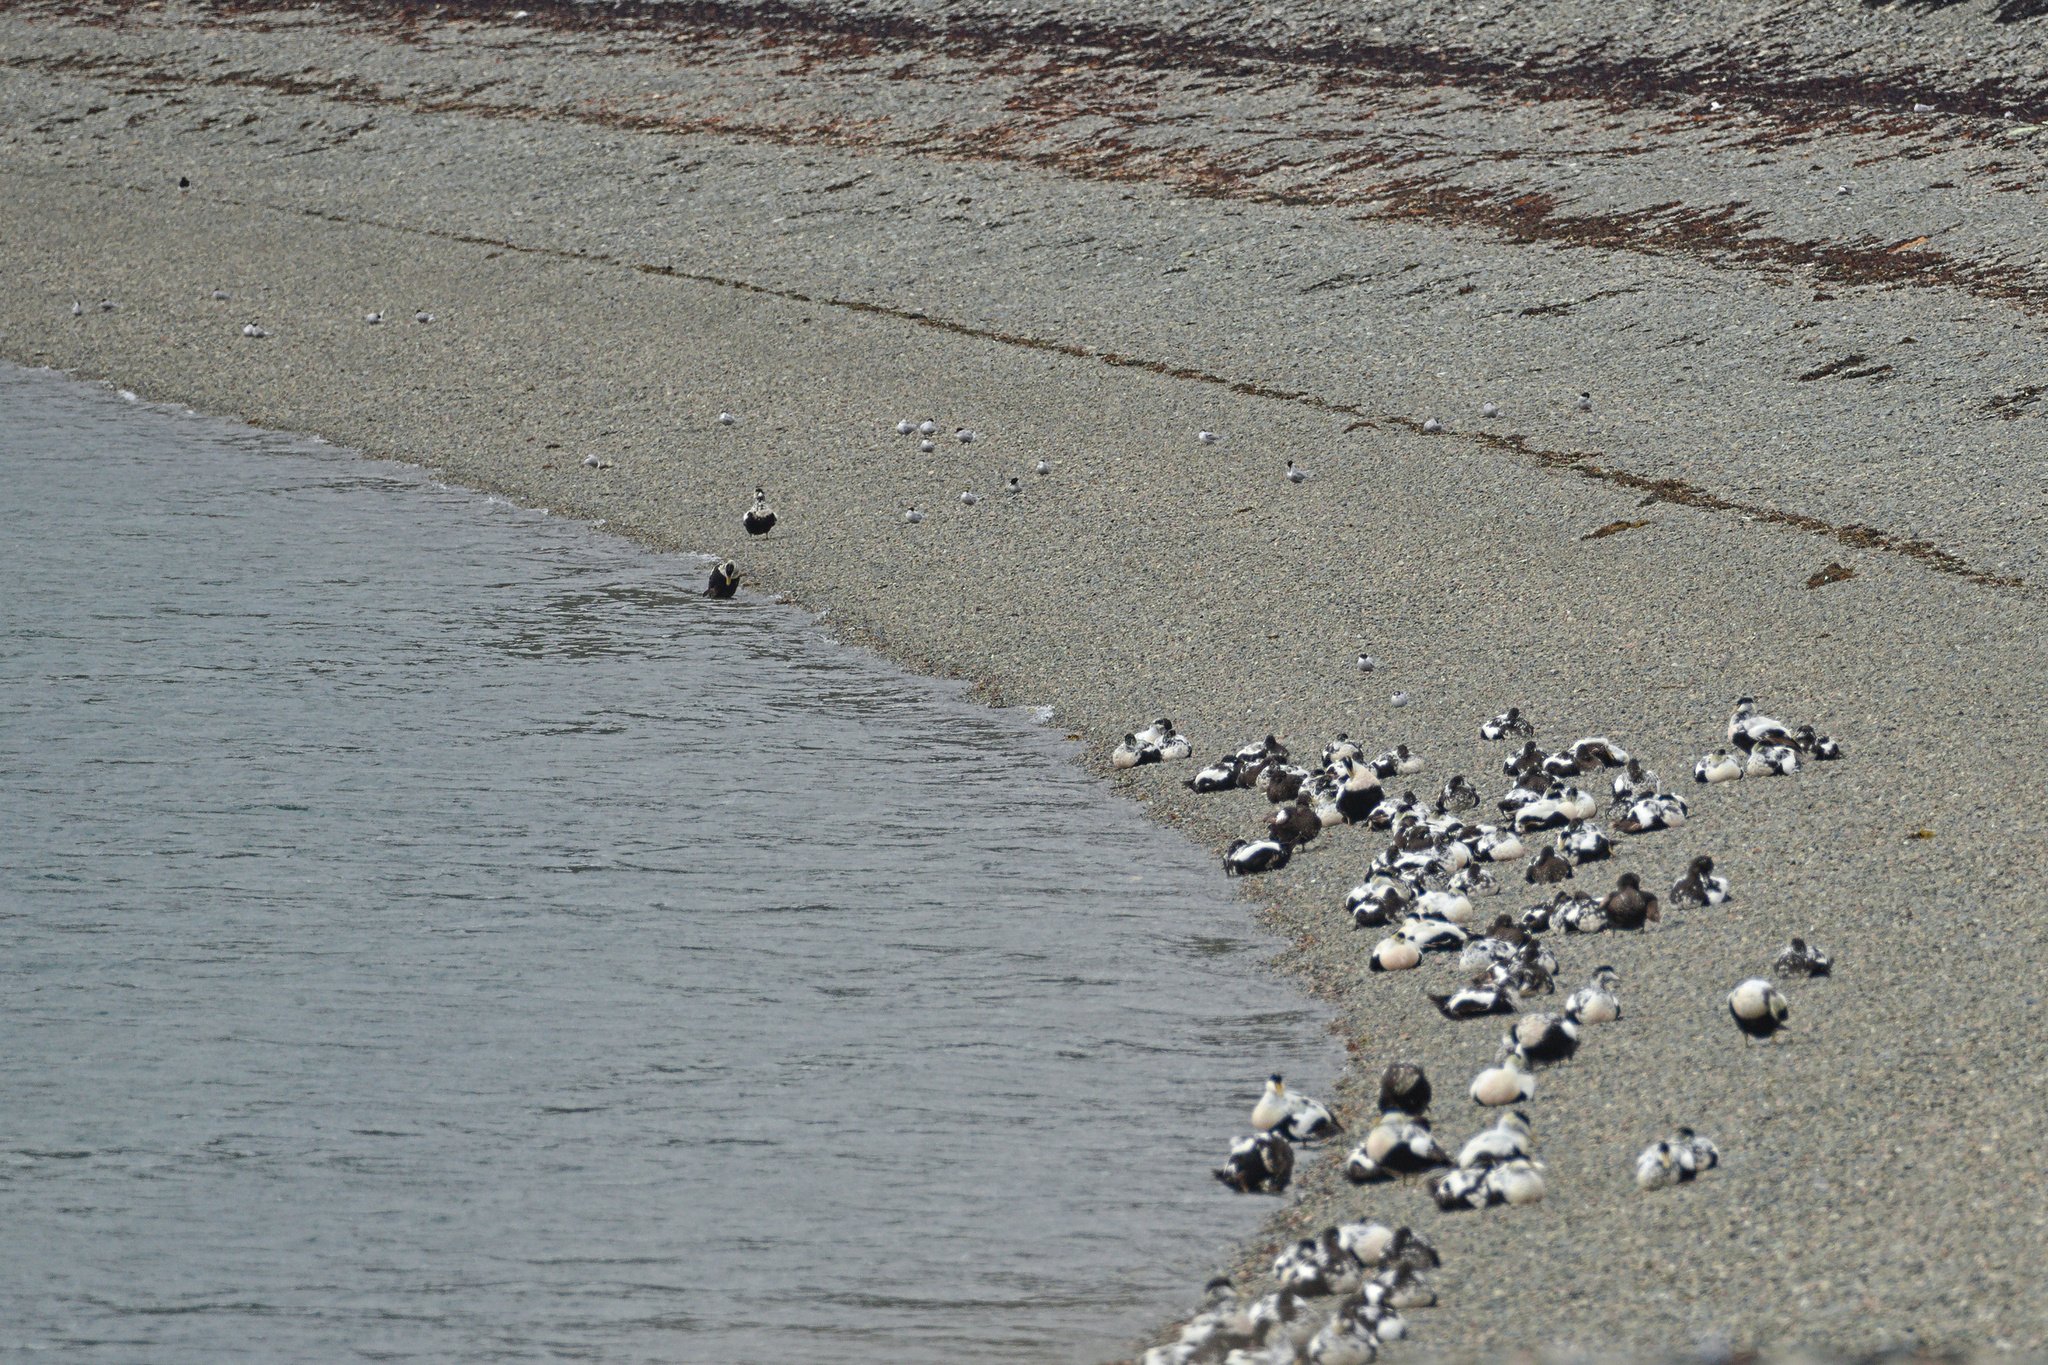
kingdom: Animalia
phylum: Chordata
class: Aves
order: Charadriiformes
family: Laridae
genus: Sterna
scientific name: Sterna paradisaea
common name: Arctic tern
